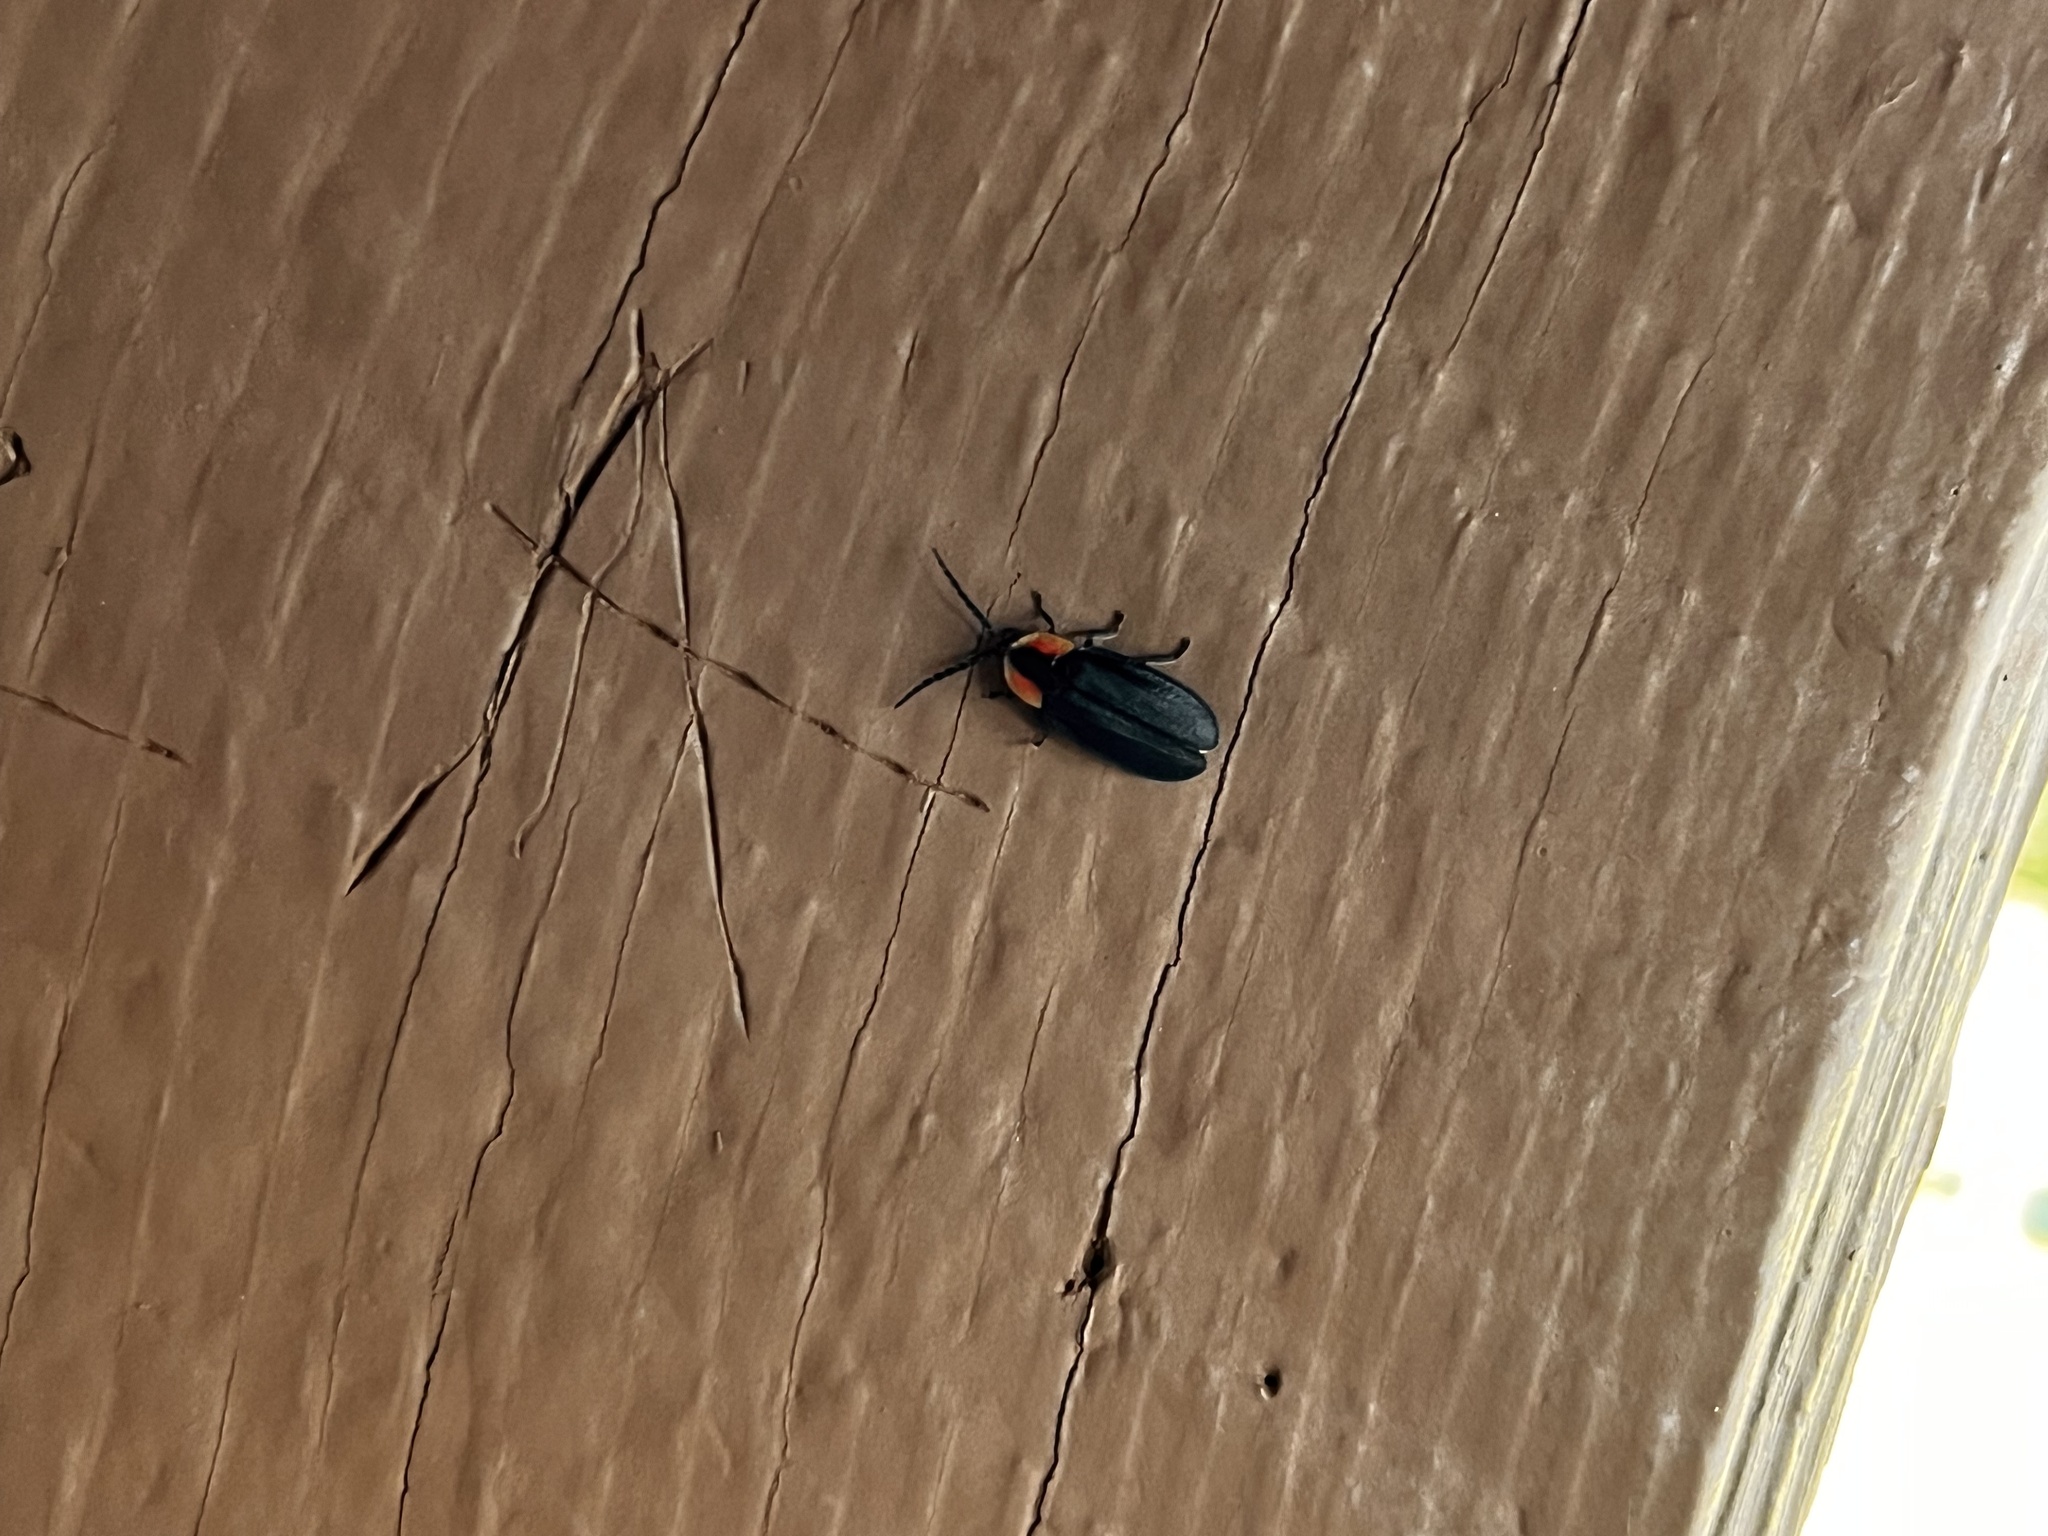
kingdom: Animalia
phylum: Arthropoda
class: Insecta
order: Coleoptera
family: Lampyridae
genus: Lucidota
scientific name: Lucidota atra
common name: Black firefly
